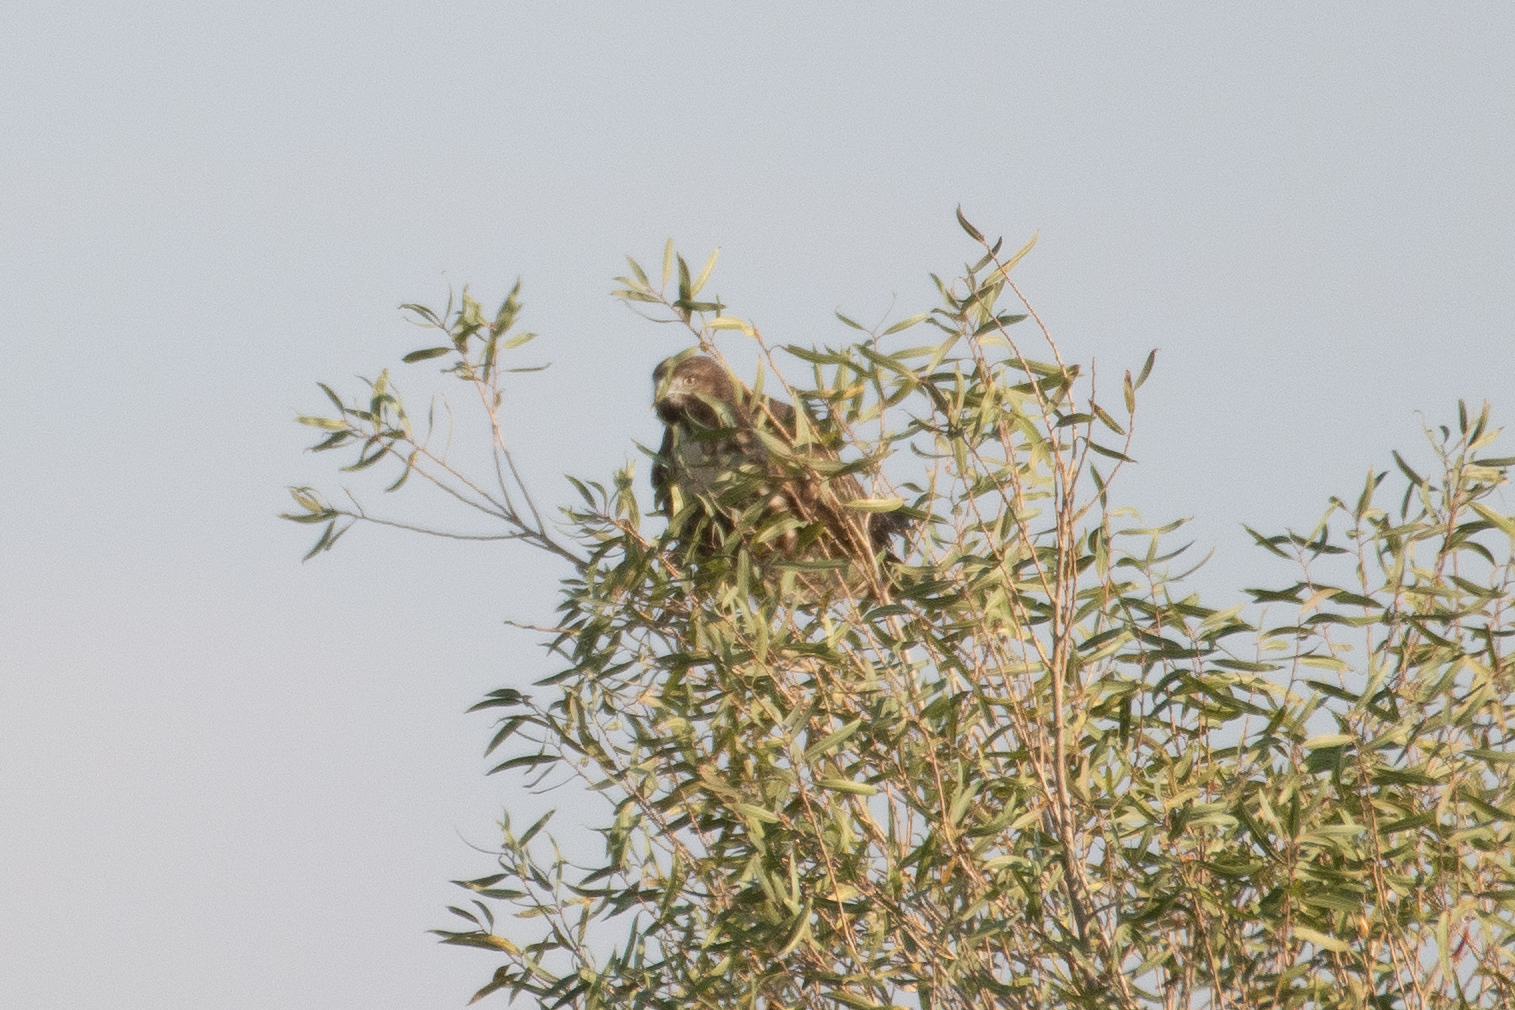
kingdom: Animalia
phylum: Chordata
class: Aves
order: Accipitriformes
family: Accipitridae
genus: Buteo
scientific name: Buteo jamaicensis
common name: Red-tailed hawk
